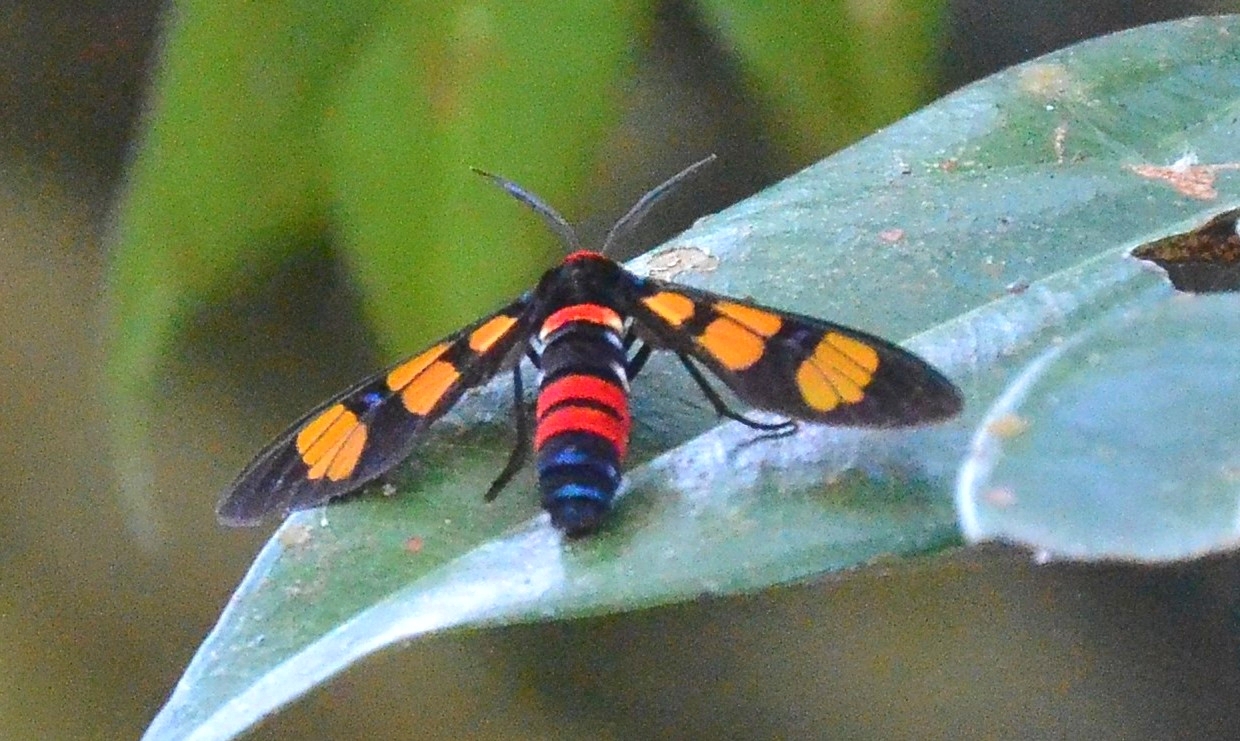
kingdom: Animalia
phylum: Arthropoda
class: Insecta
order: Lepidoptera
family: Erebidae
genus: Euchromia
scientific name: Euchromia polymena
